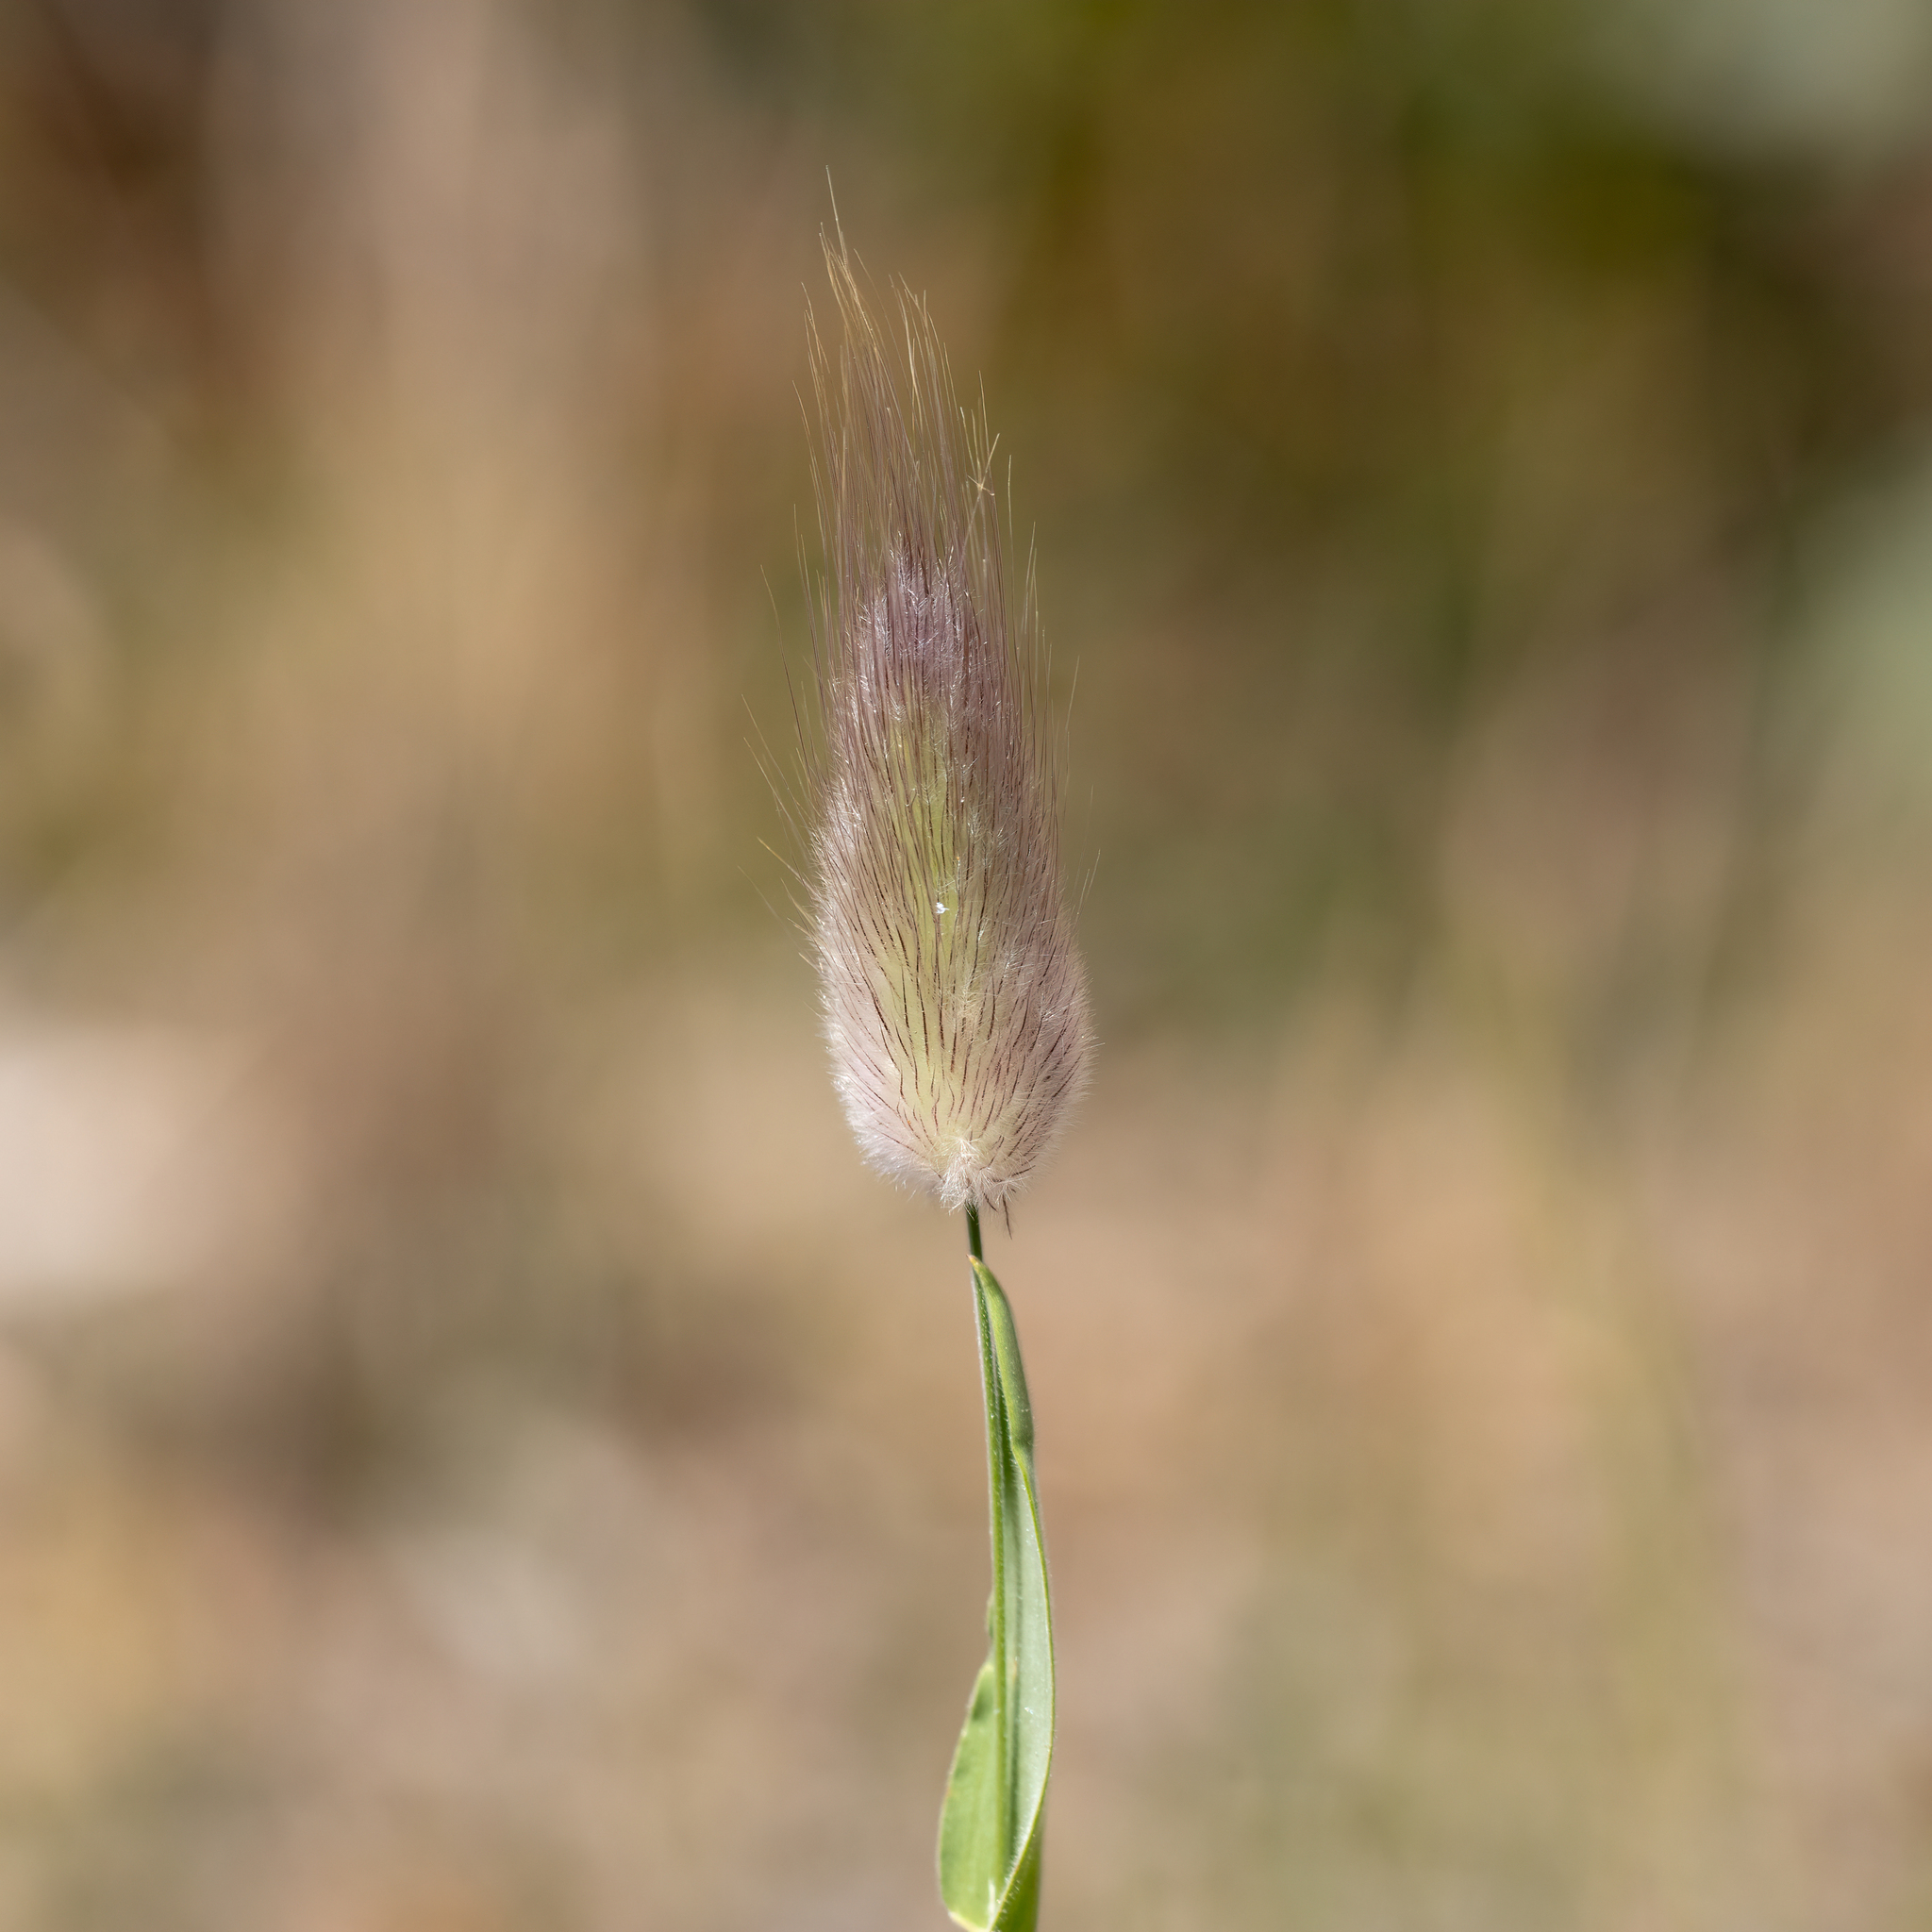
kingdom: Plantae
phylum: Tracheophyta
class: Liliopsida
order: Poales
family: Poaceae
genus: Lagurus
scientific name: Lagurus ovatus
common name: Hare's-tail
